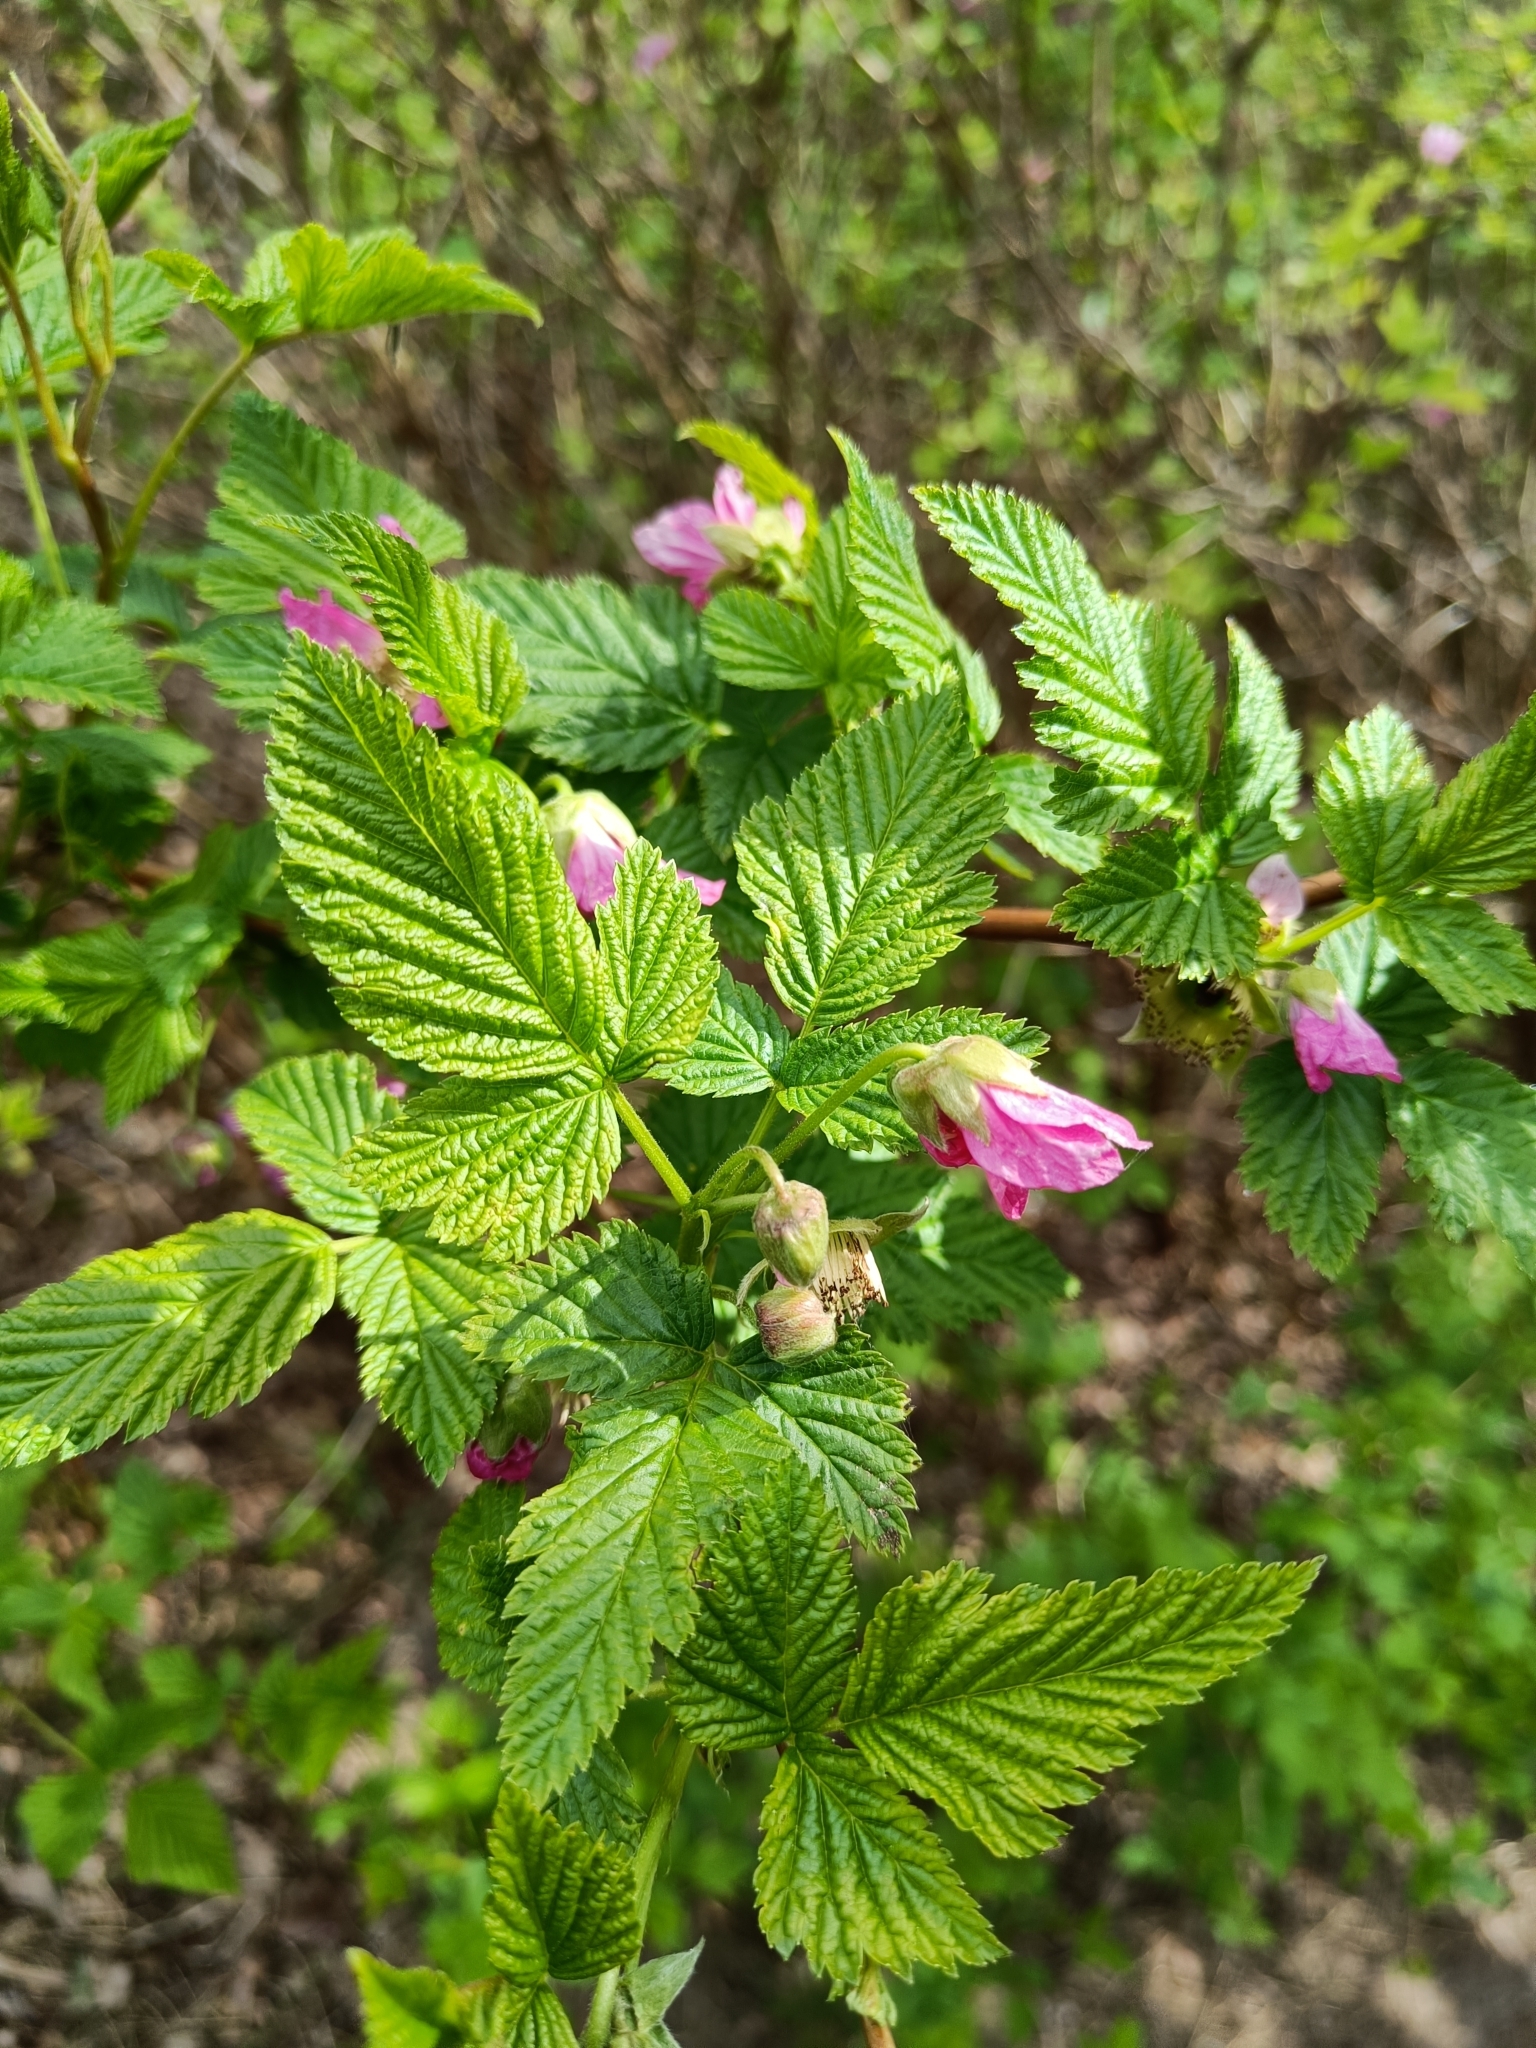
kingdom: Plantae
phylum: Tracheophyta
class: Magnoliopsida
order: Rosales
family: Rosaceae
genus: Rubus
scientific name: Rubus spectabilis
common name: Salmonberry
